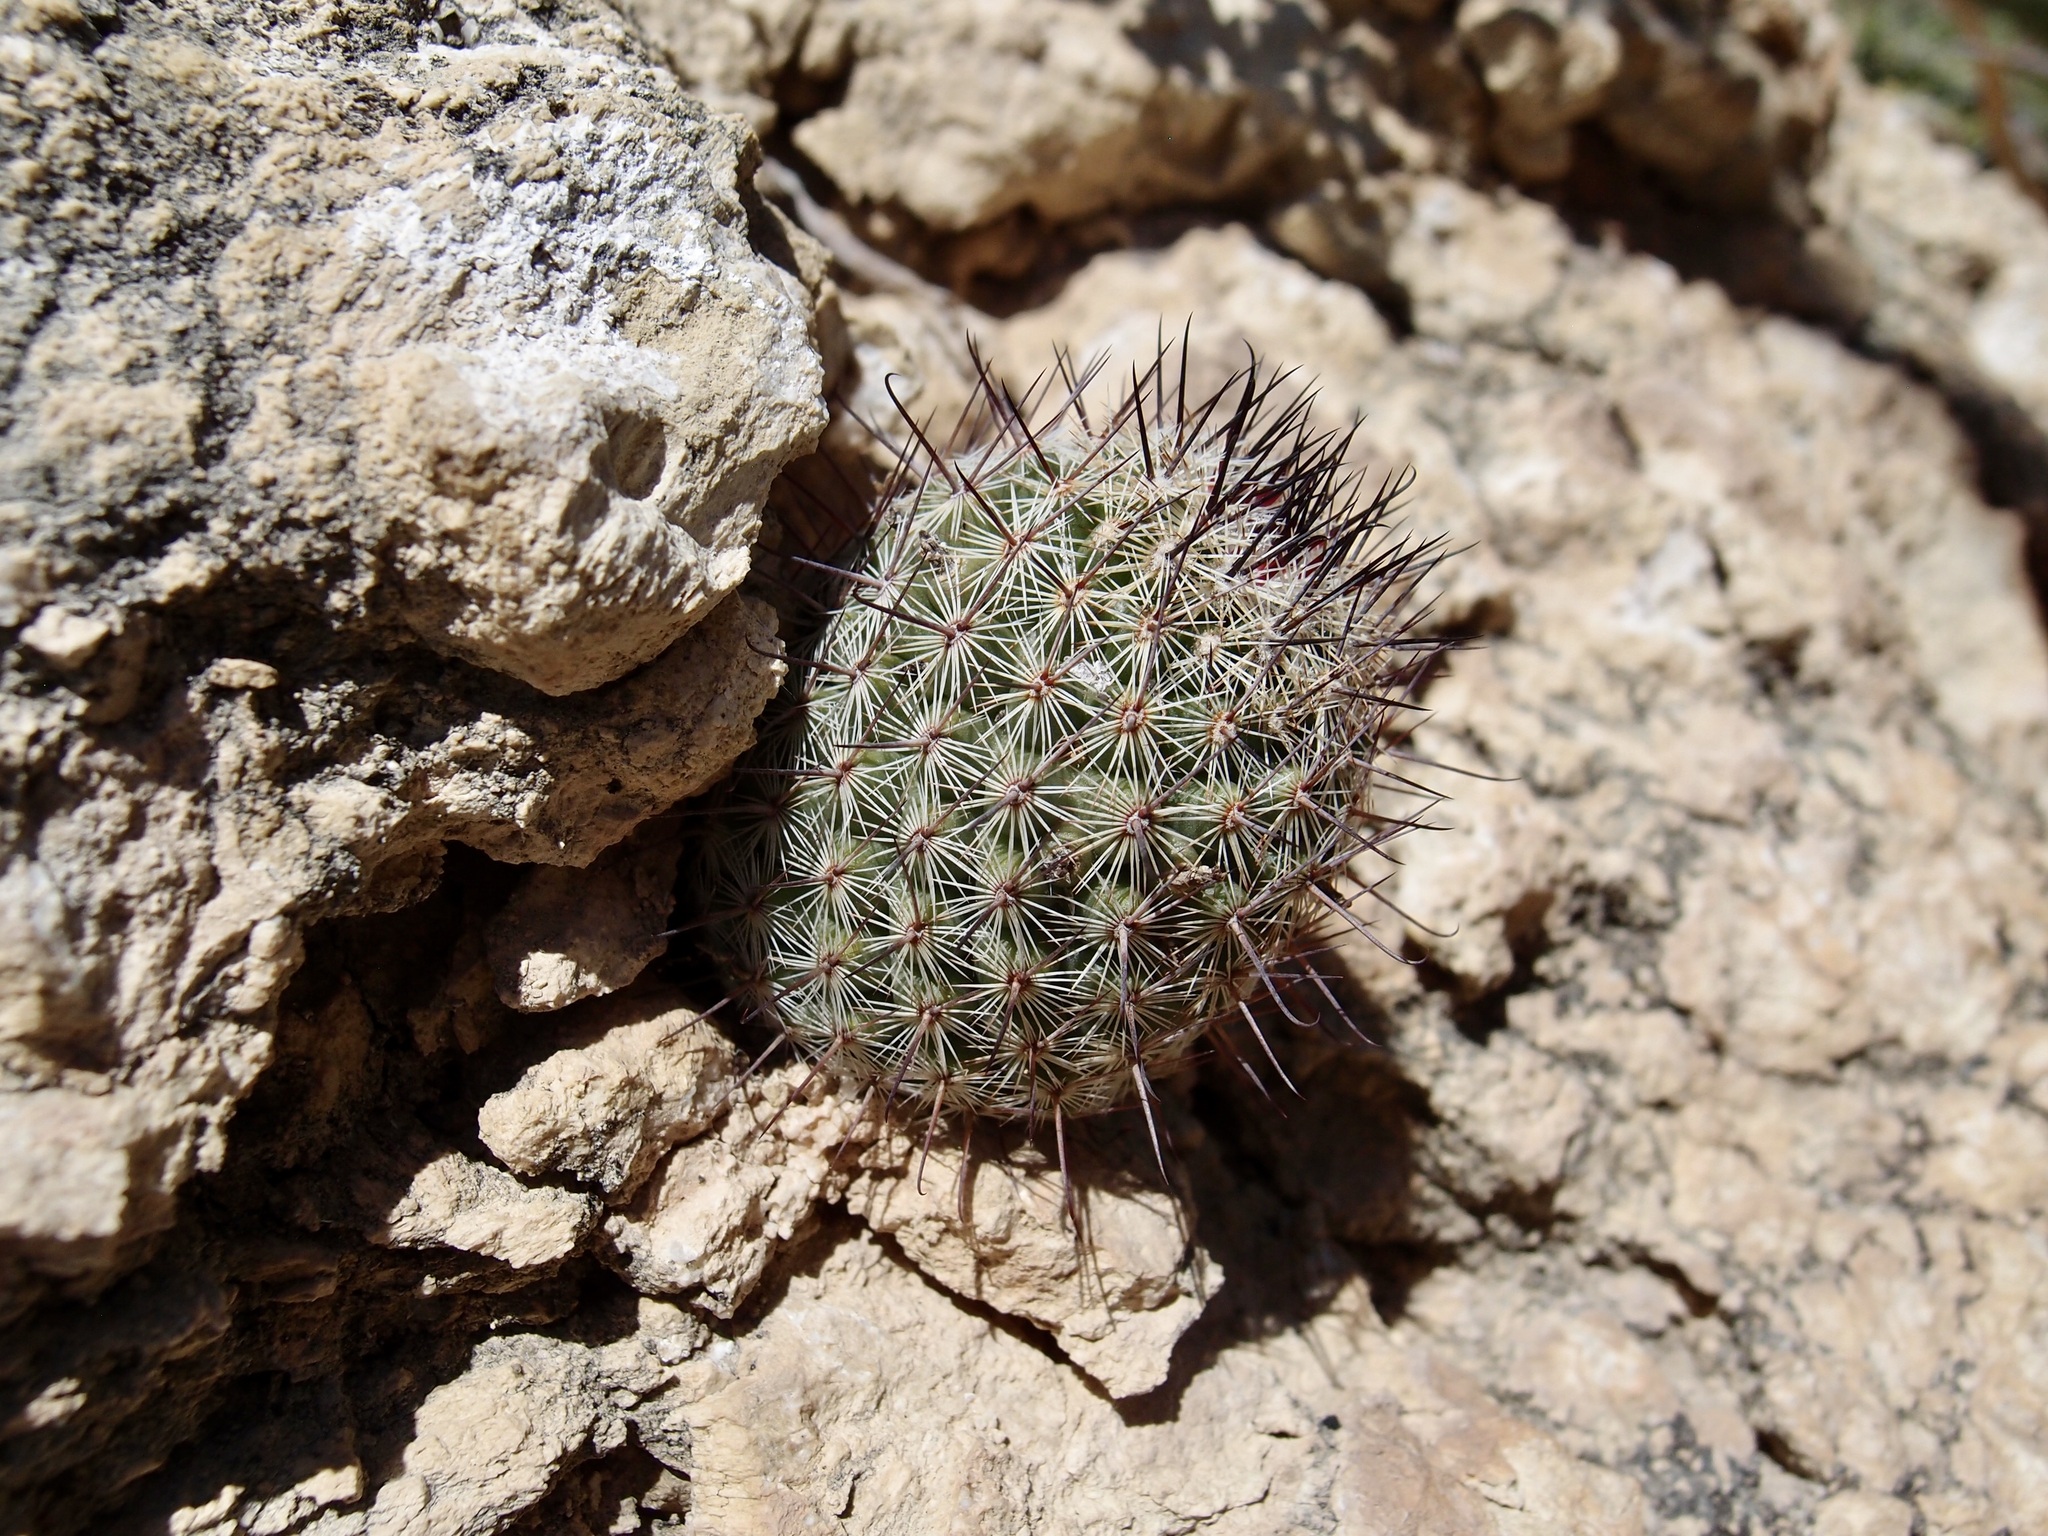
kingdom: Plantae
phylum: Tracheophyta
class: Magnoliopsida
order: Caryophyllales
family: Cactaceae
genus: Cochemiea
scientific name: Cochemiea sheldonii
